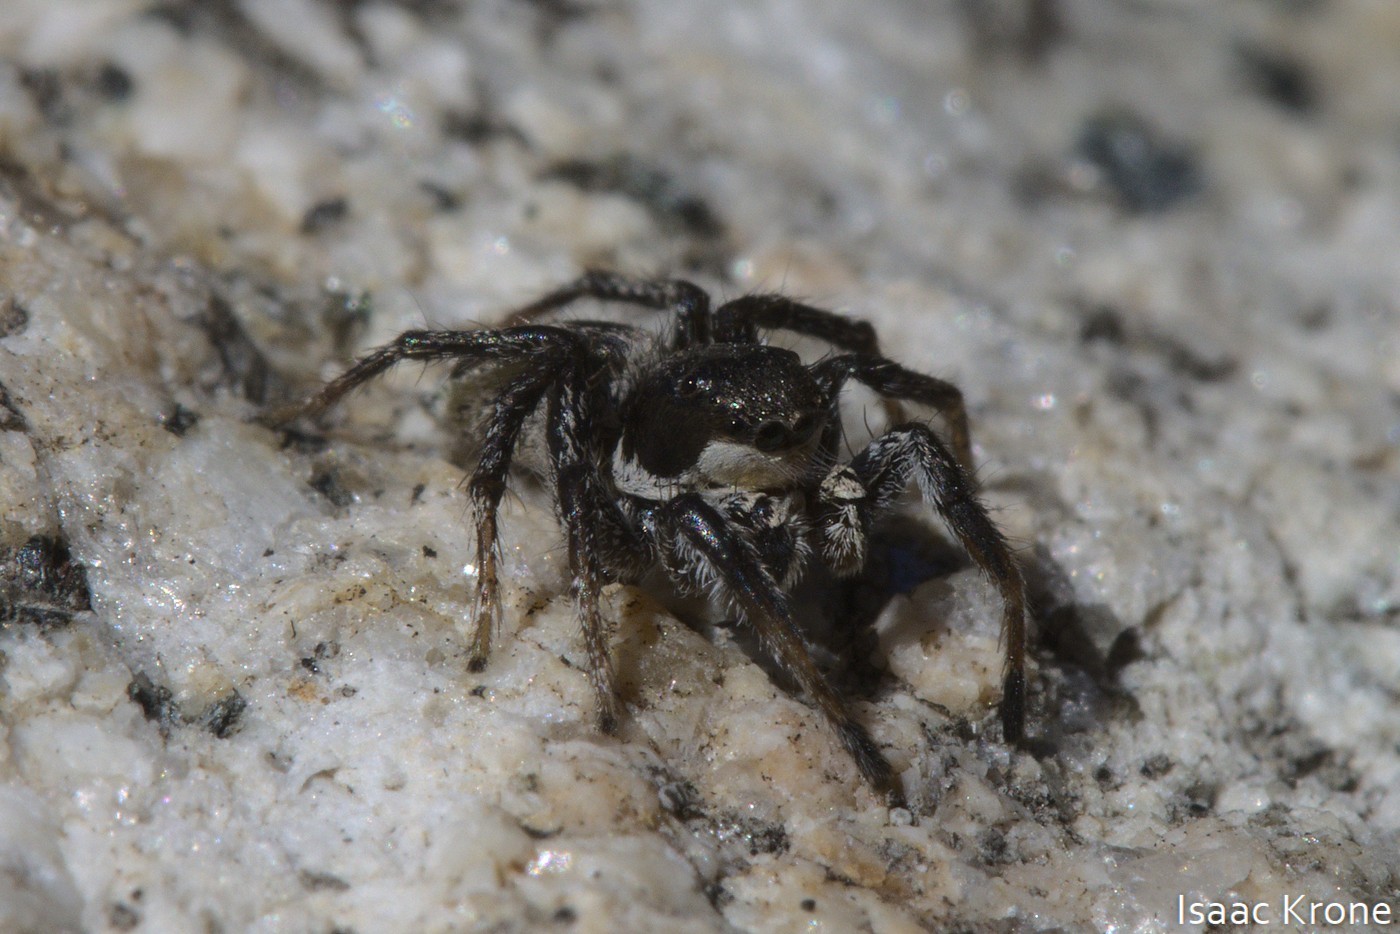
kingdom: Animalia
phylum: Arthropoda
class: Arachnida
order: Araneae
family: Salticidae
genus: Habronattus
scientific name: Habronattus tarsalis
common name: Jumping spider
